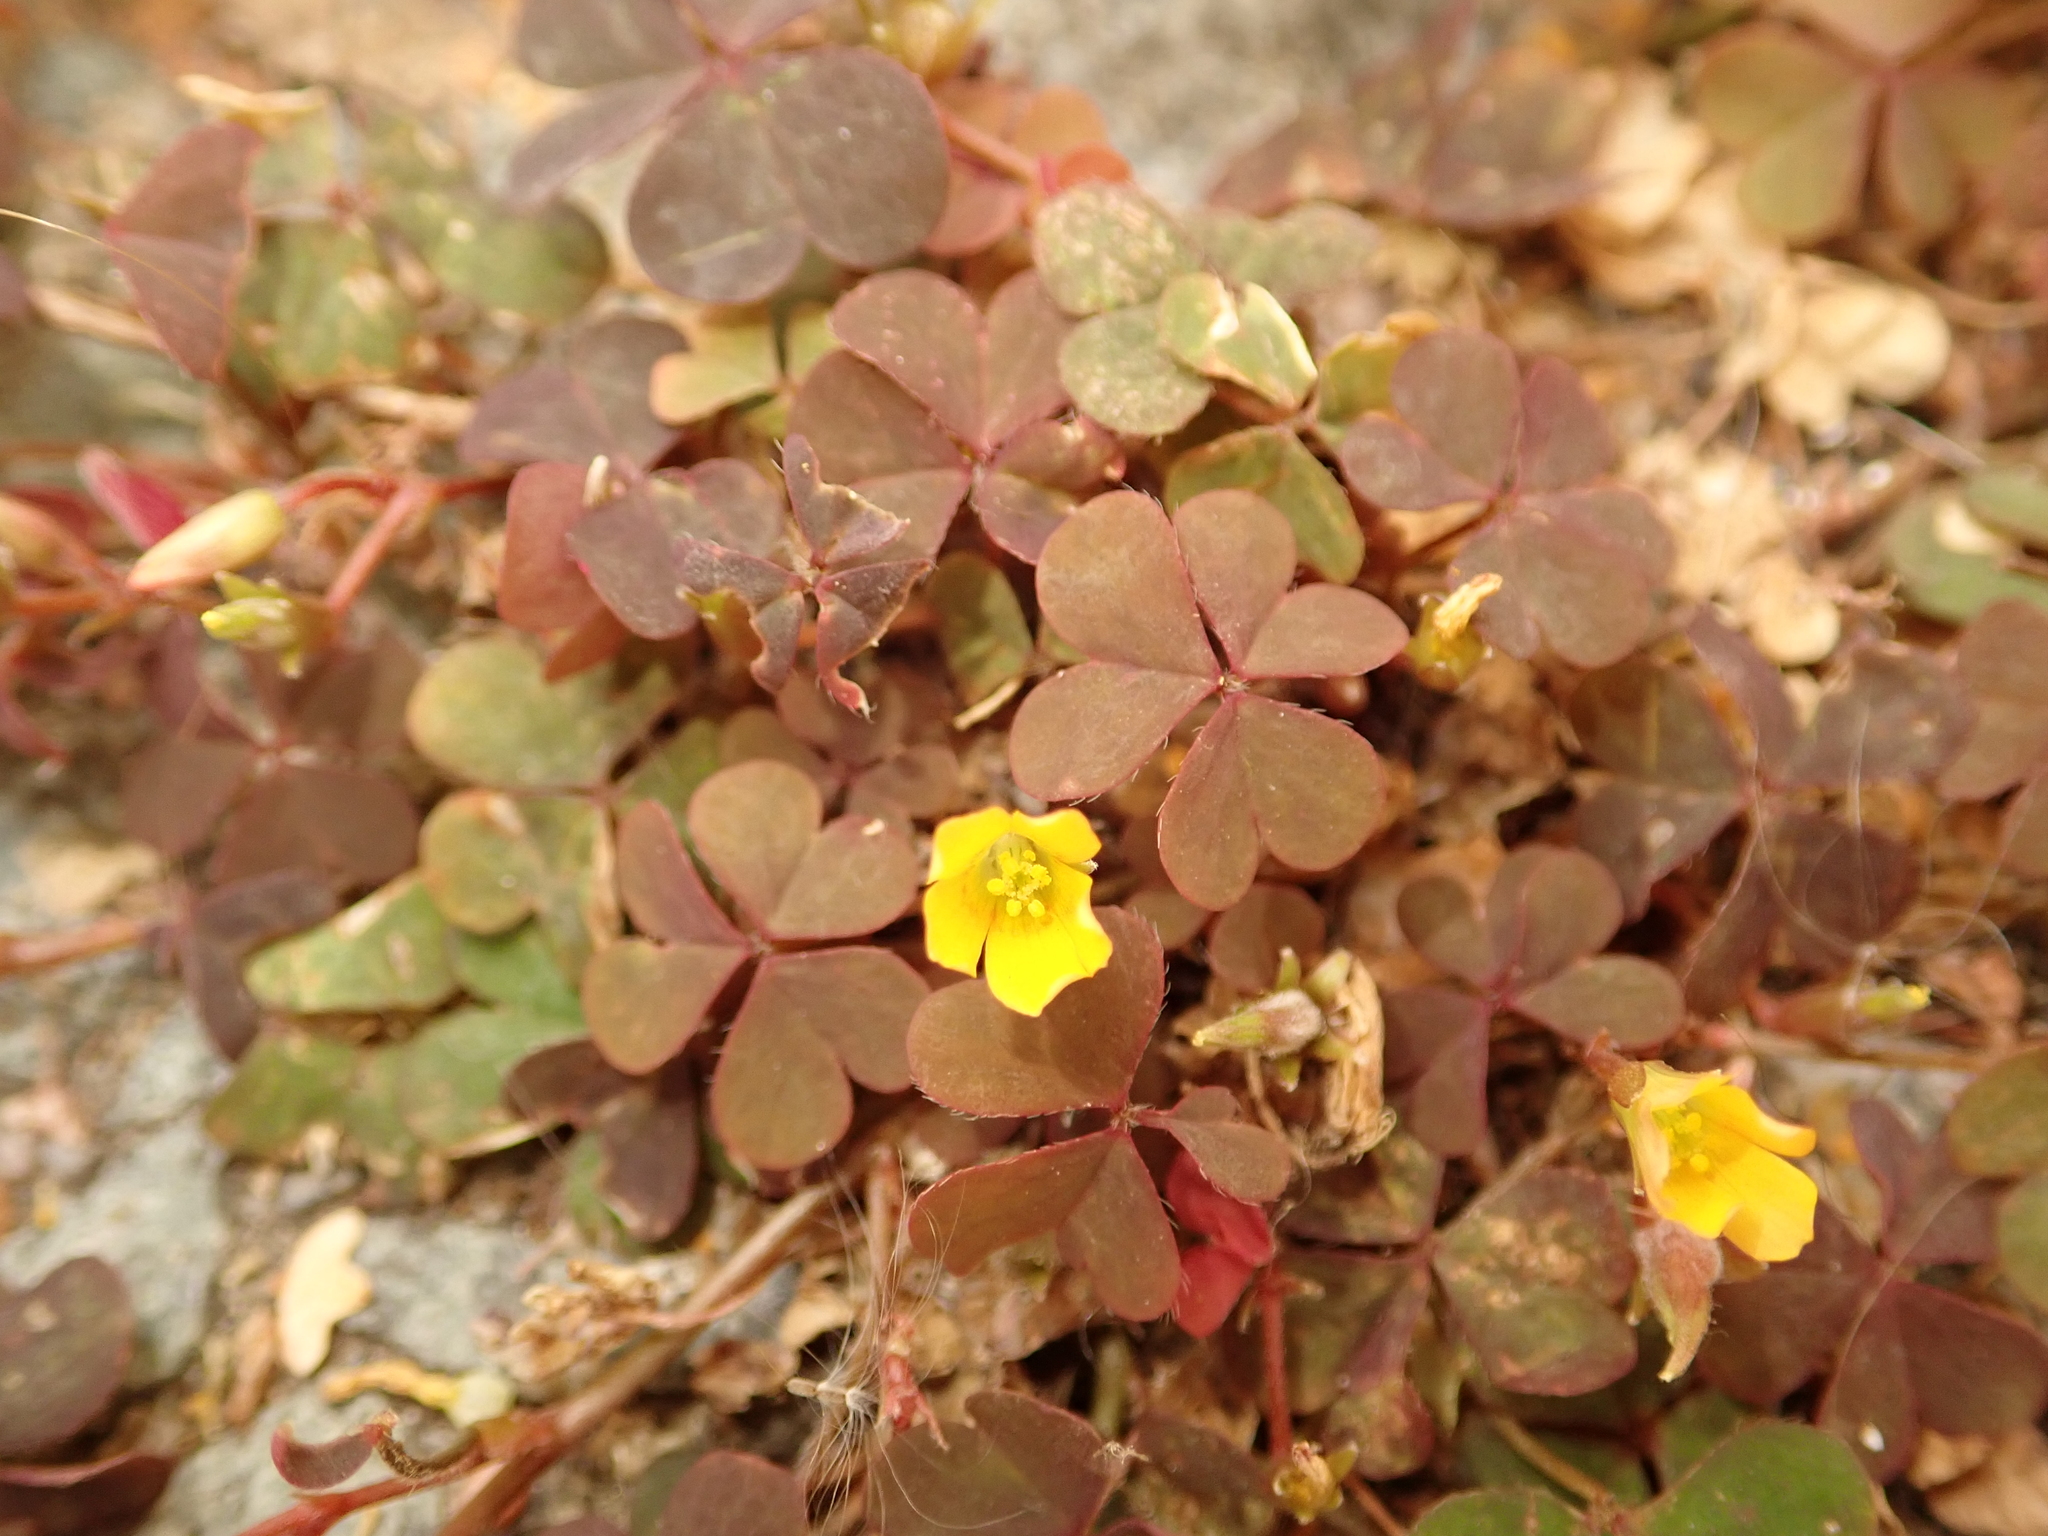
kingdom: Plantae
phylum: Tracheophyta
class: Magnoliopsida
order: Oxalidales
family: Oxalidaceae
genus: Oxalis
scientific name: Oxalis corniculata
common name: Procumbent yellow-sorrel
